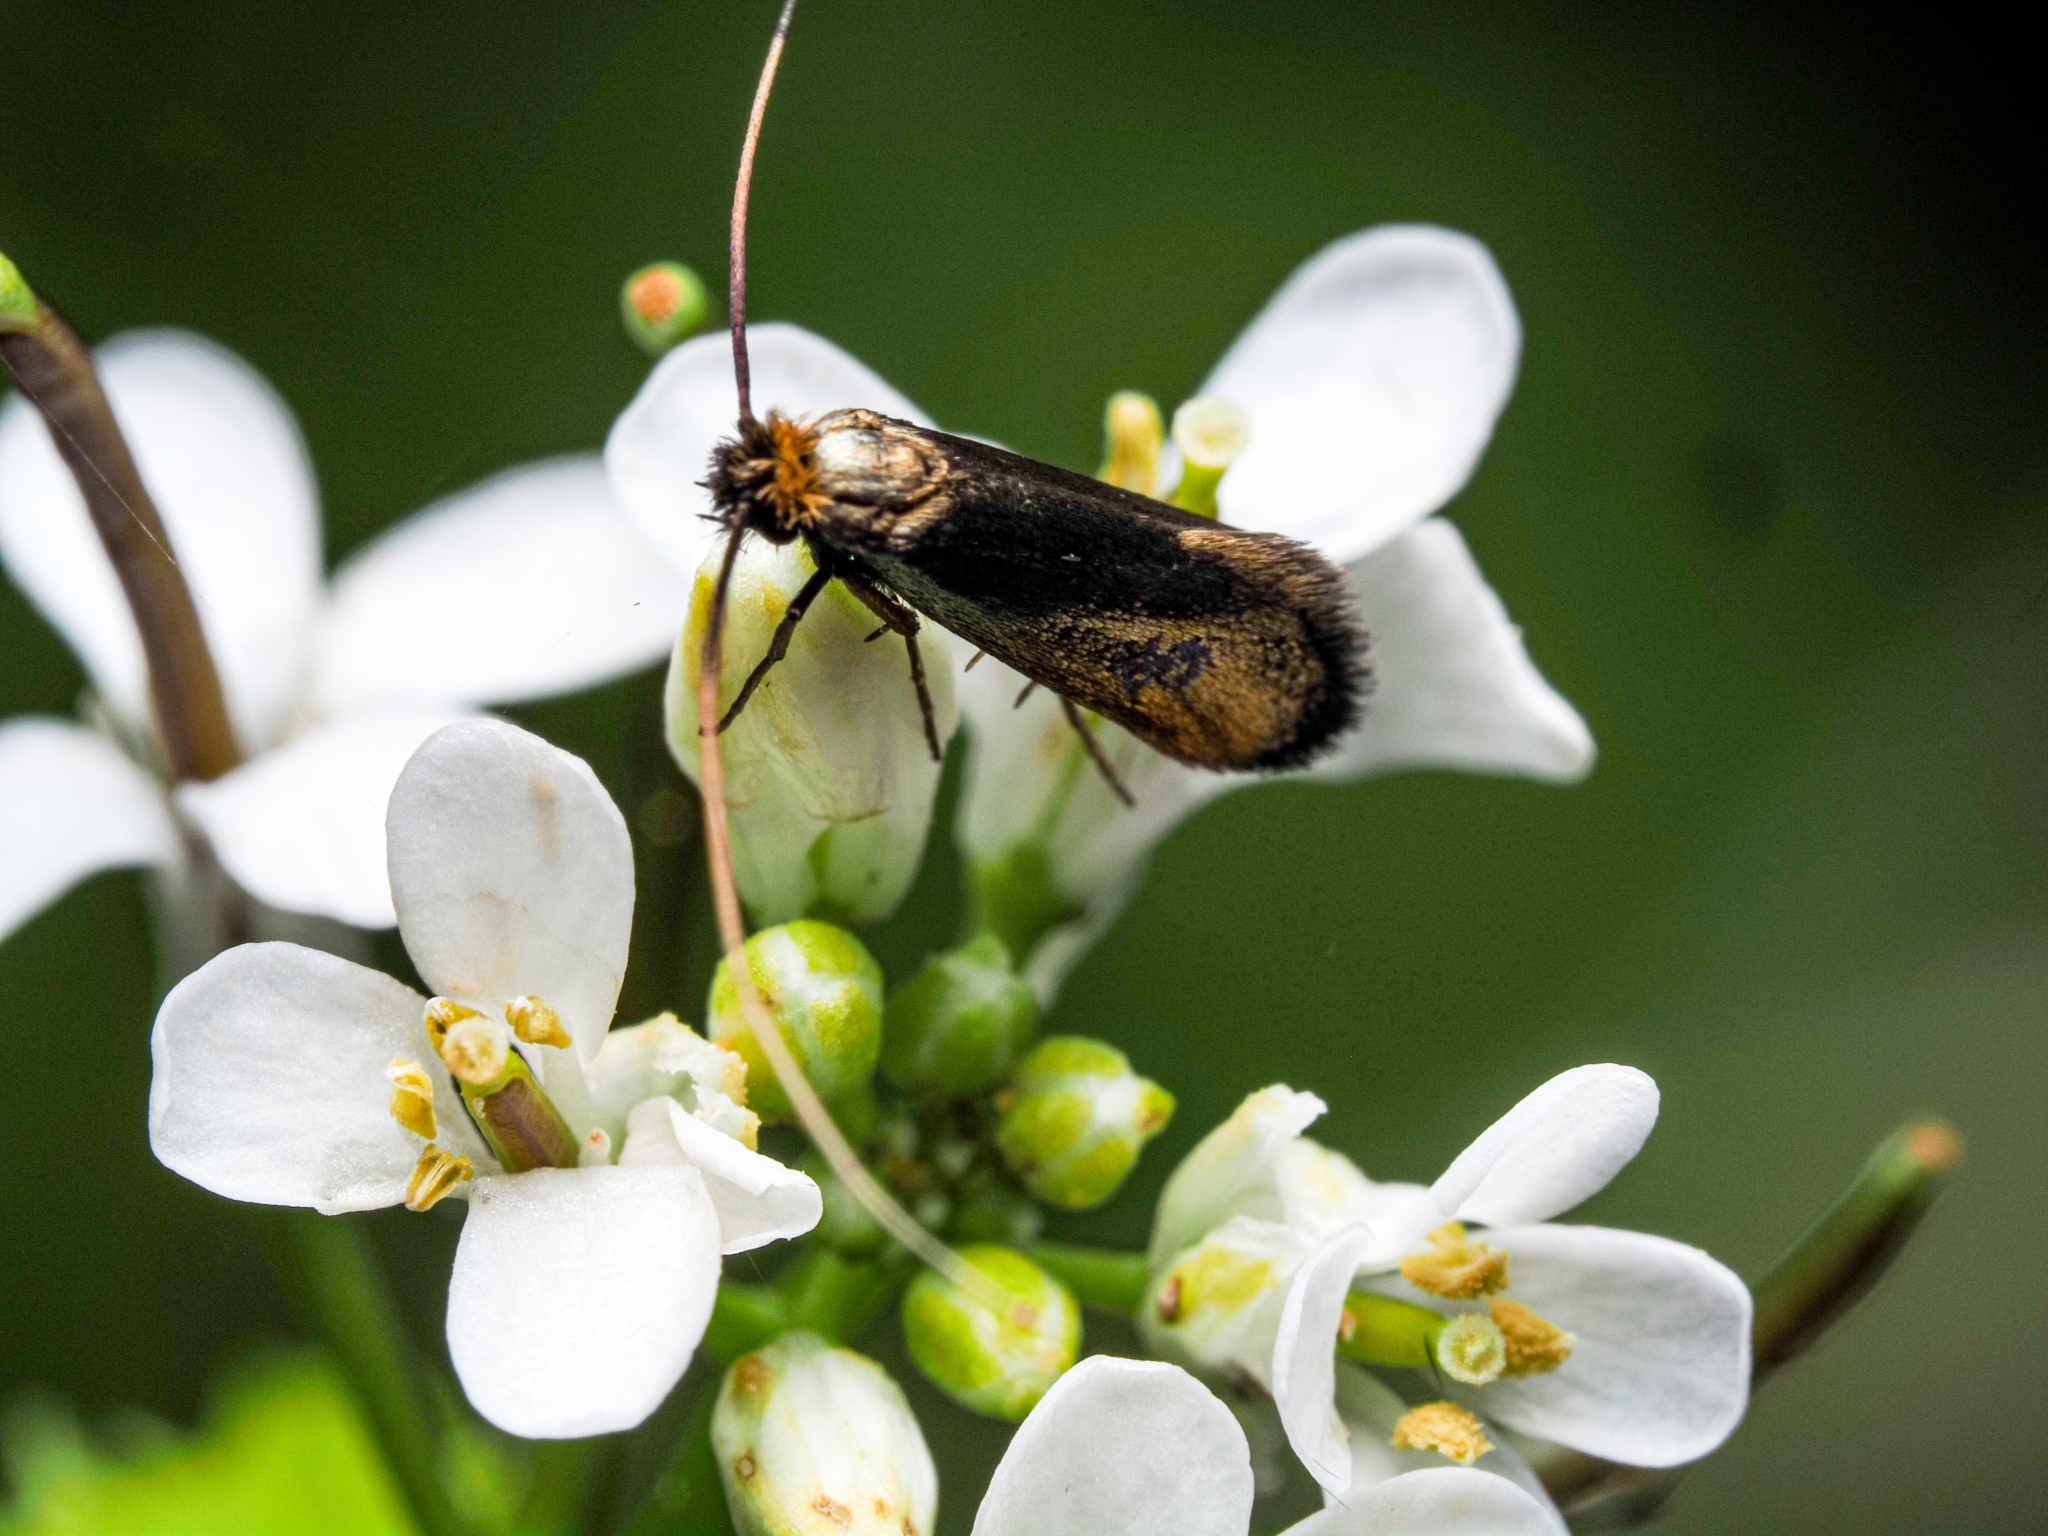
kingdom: Animalia
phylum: Arthropoda
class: Insecta
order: Lepidoptera
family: Adelidae
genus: Cauchas
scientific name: Cauchas rufimitrella
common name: Meadow long-horn
